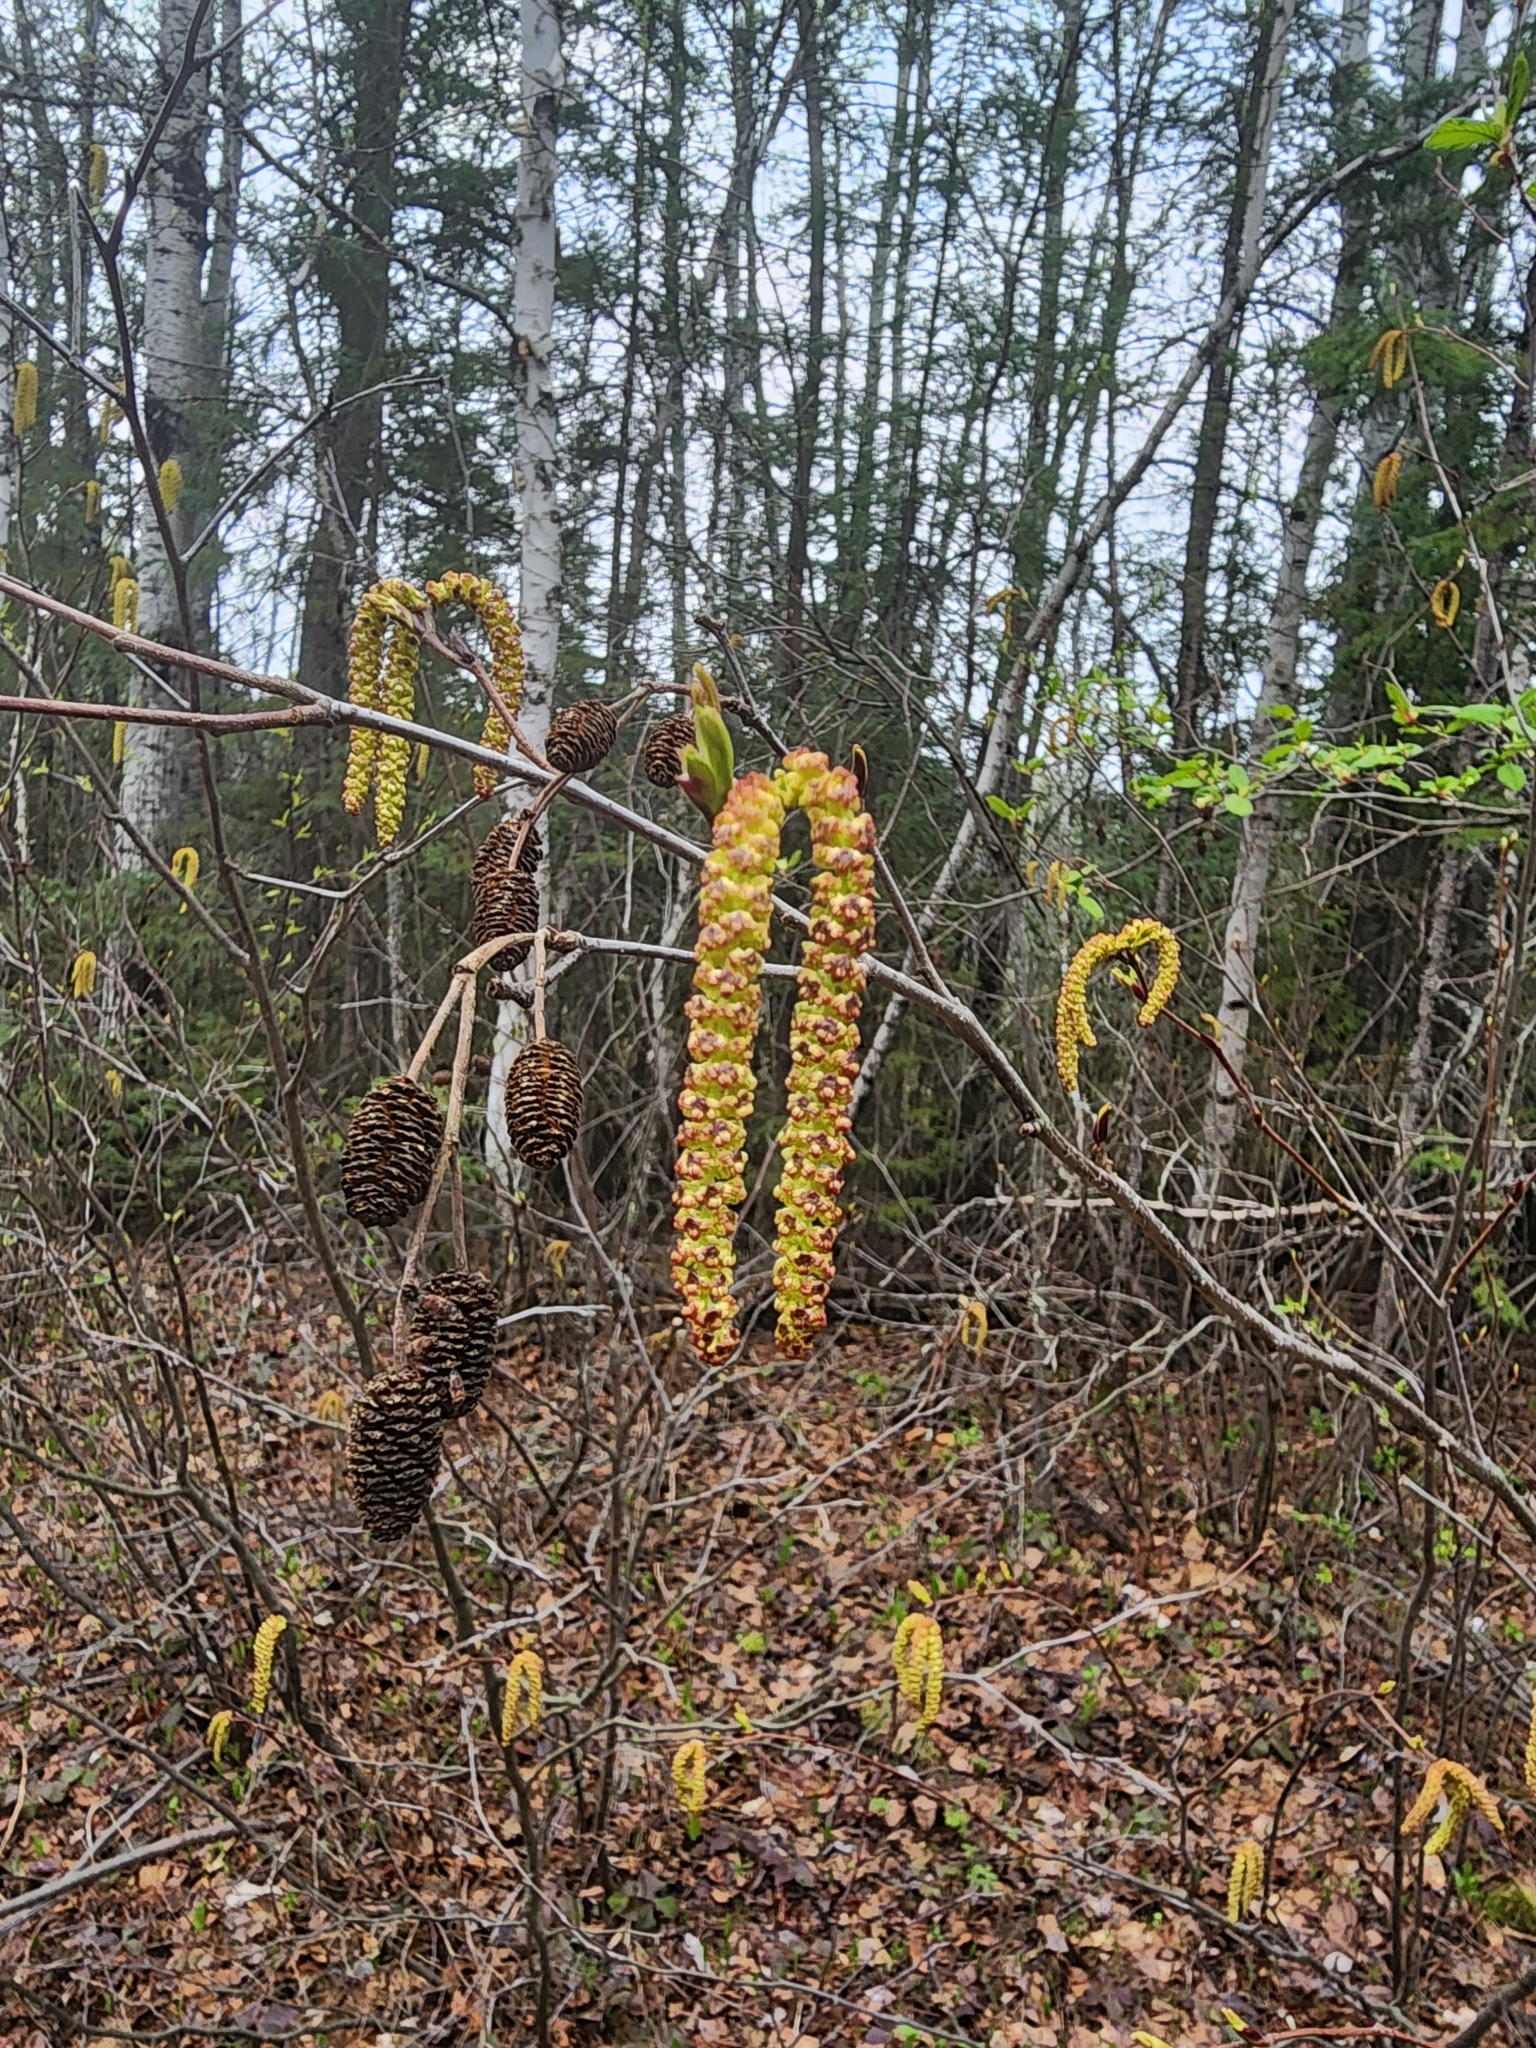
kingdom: Plantae
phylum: Tracheophyta
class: Magnoliopsida
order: Fagales
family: Betulaceae
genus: Alnus
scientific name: Alnus alnobetula
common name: Green alder
